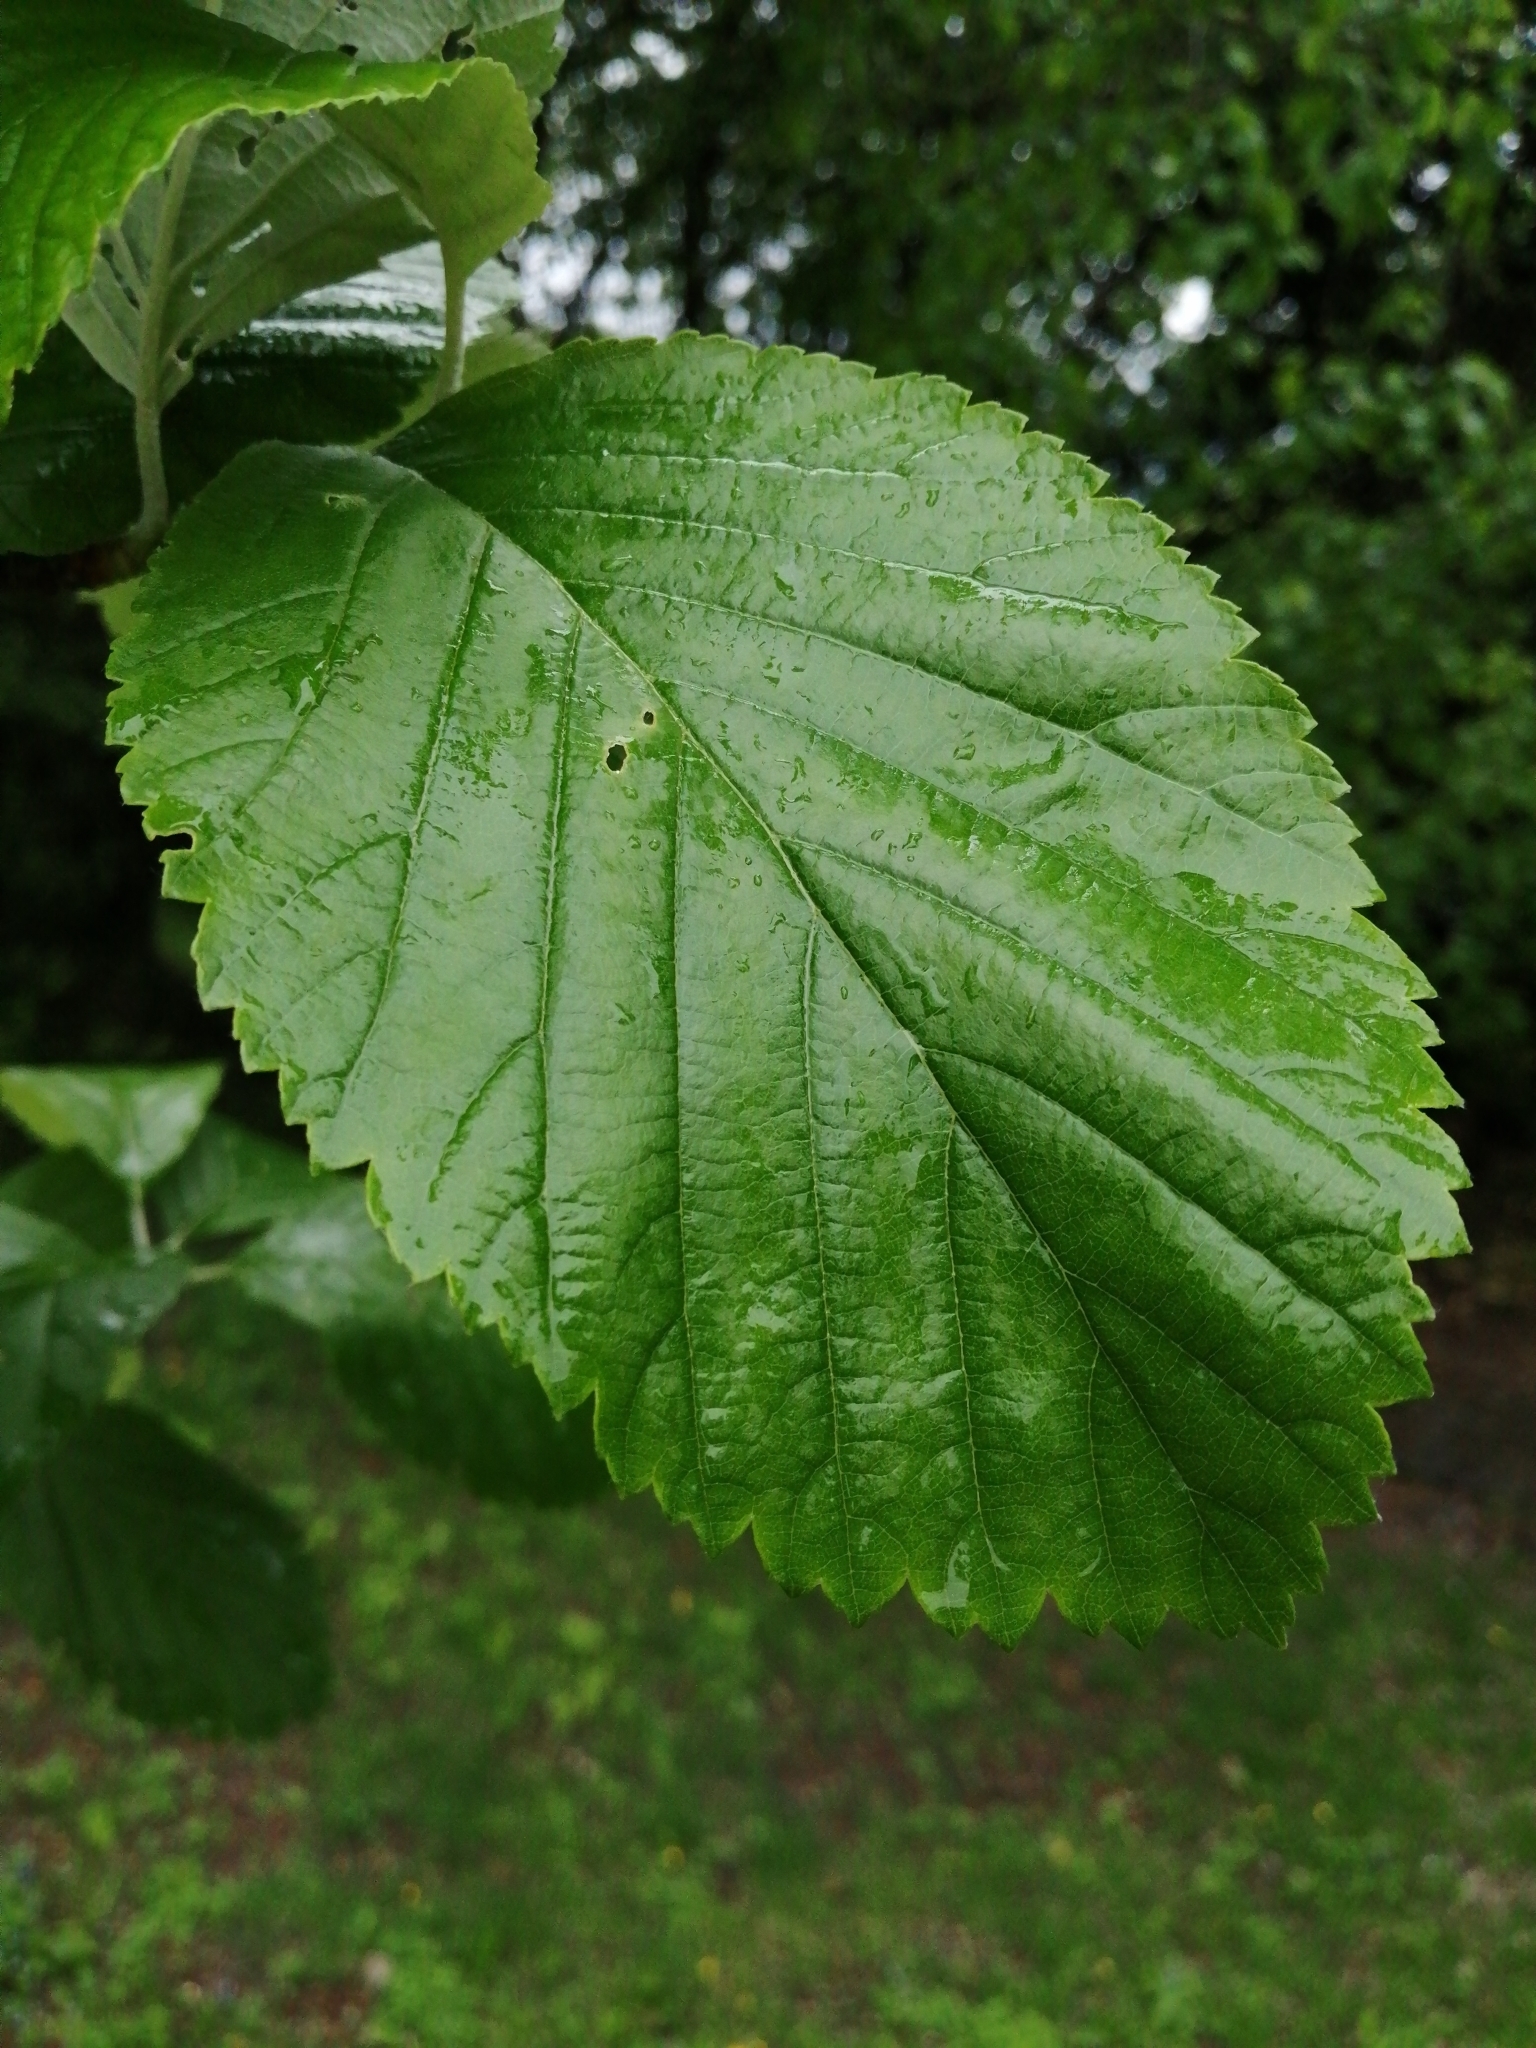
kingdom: Plantae
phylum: Tracheophyta
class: Magnoliopsida
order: Rosales
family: Rosaceae
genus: Aria
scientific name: Aria edulis
